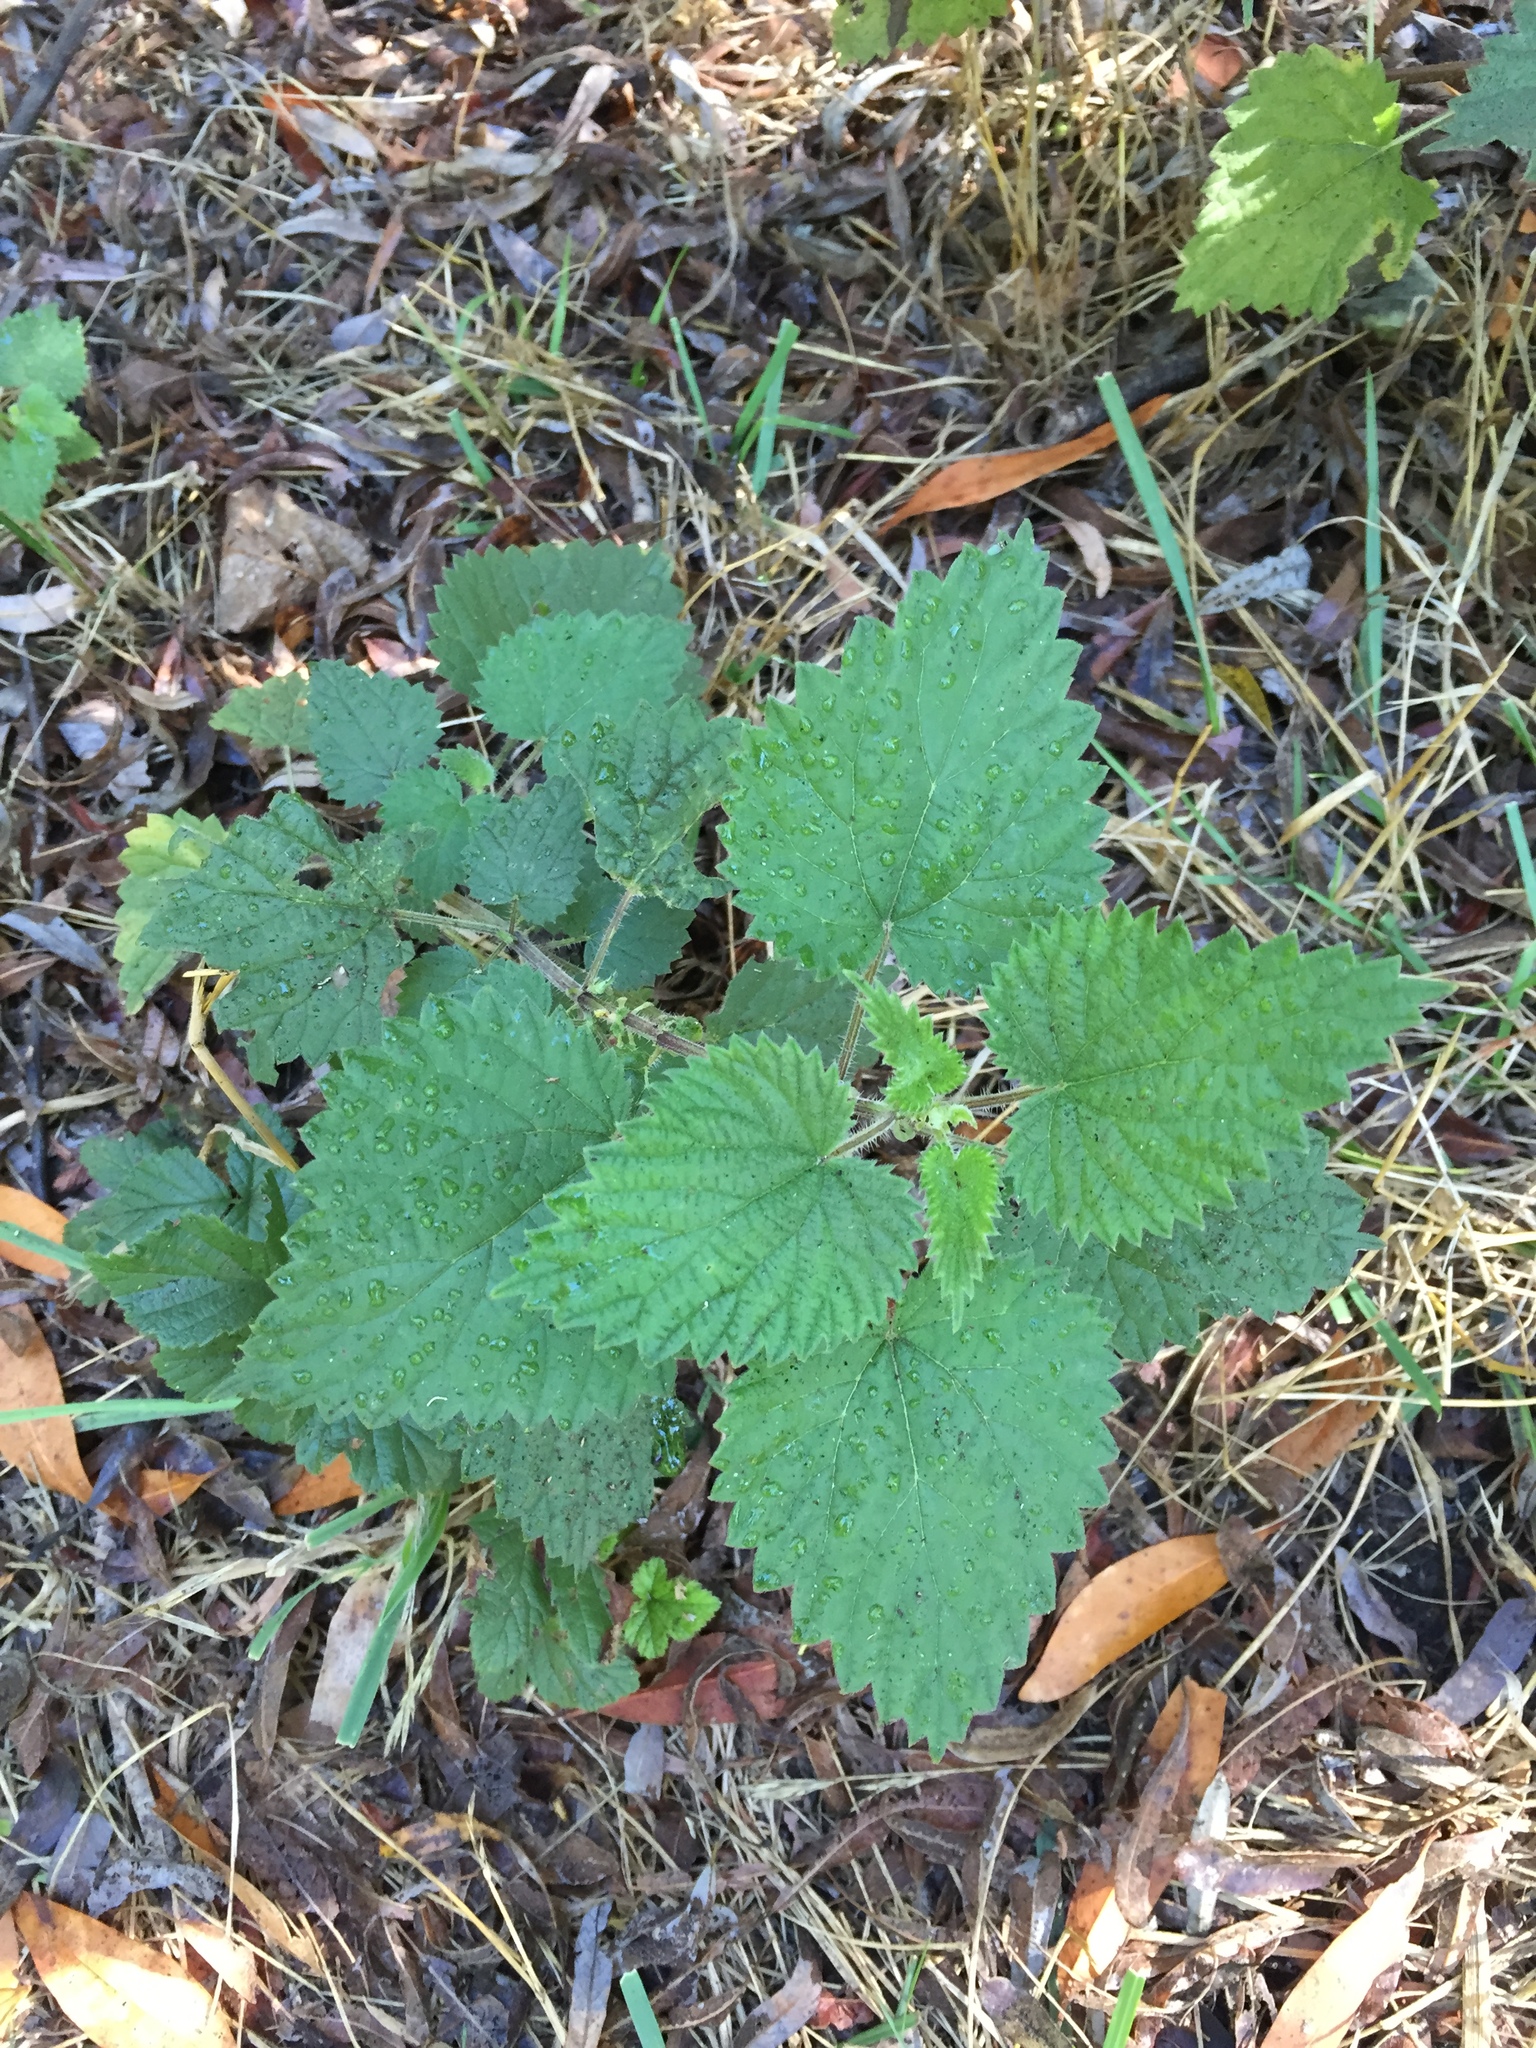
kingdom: Plantae
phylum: Tracheophyta
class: Magnoliopsida
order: Rosales
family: Urticaceae
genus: Urtica
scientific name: Urtica dioica
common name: Common nettle
